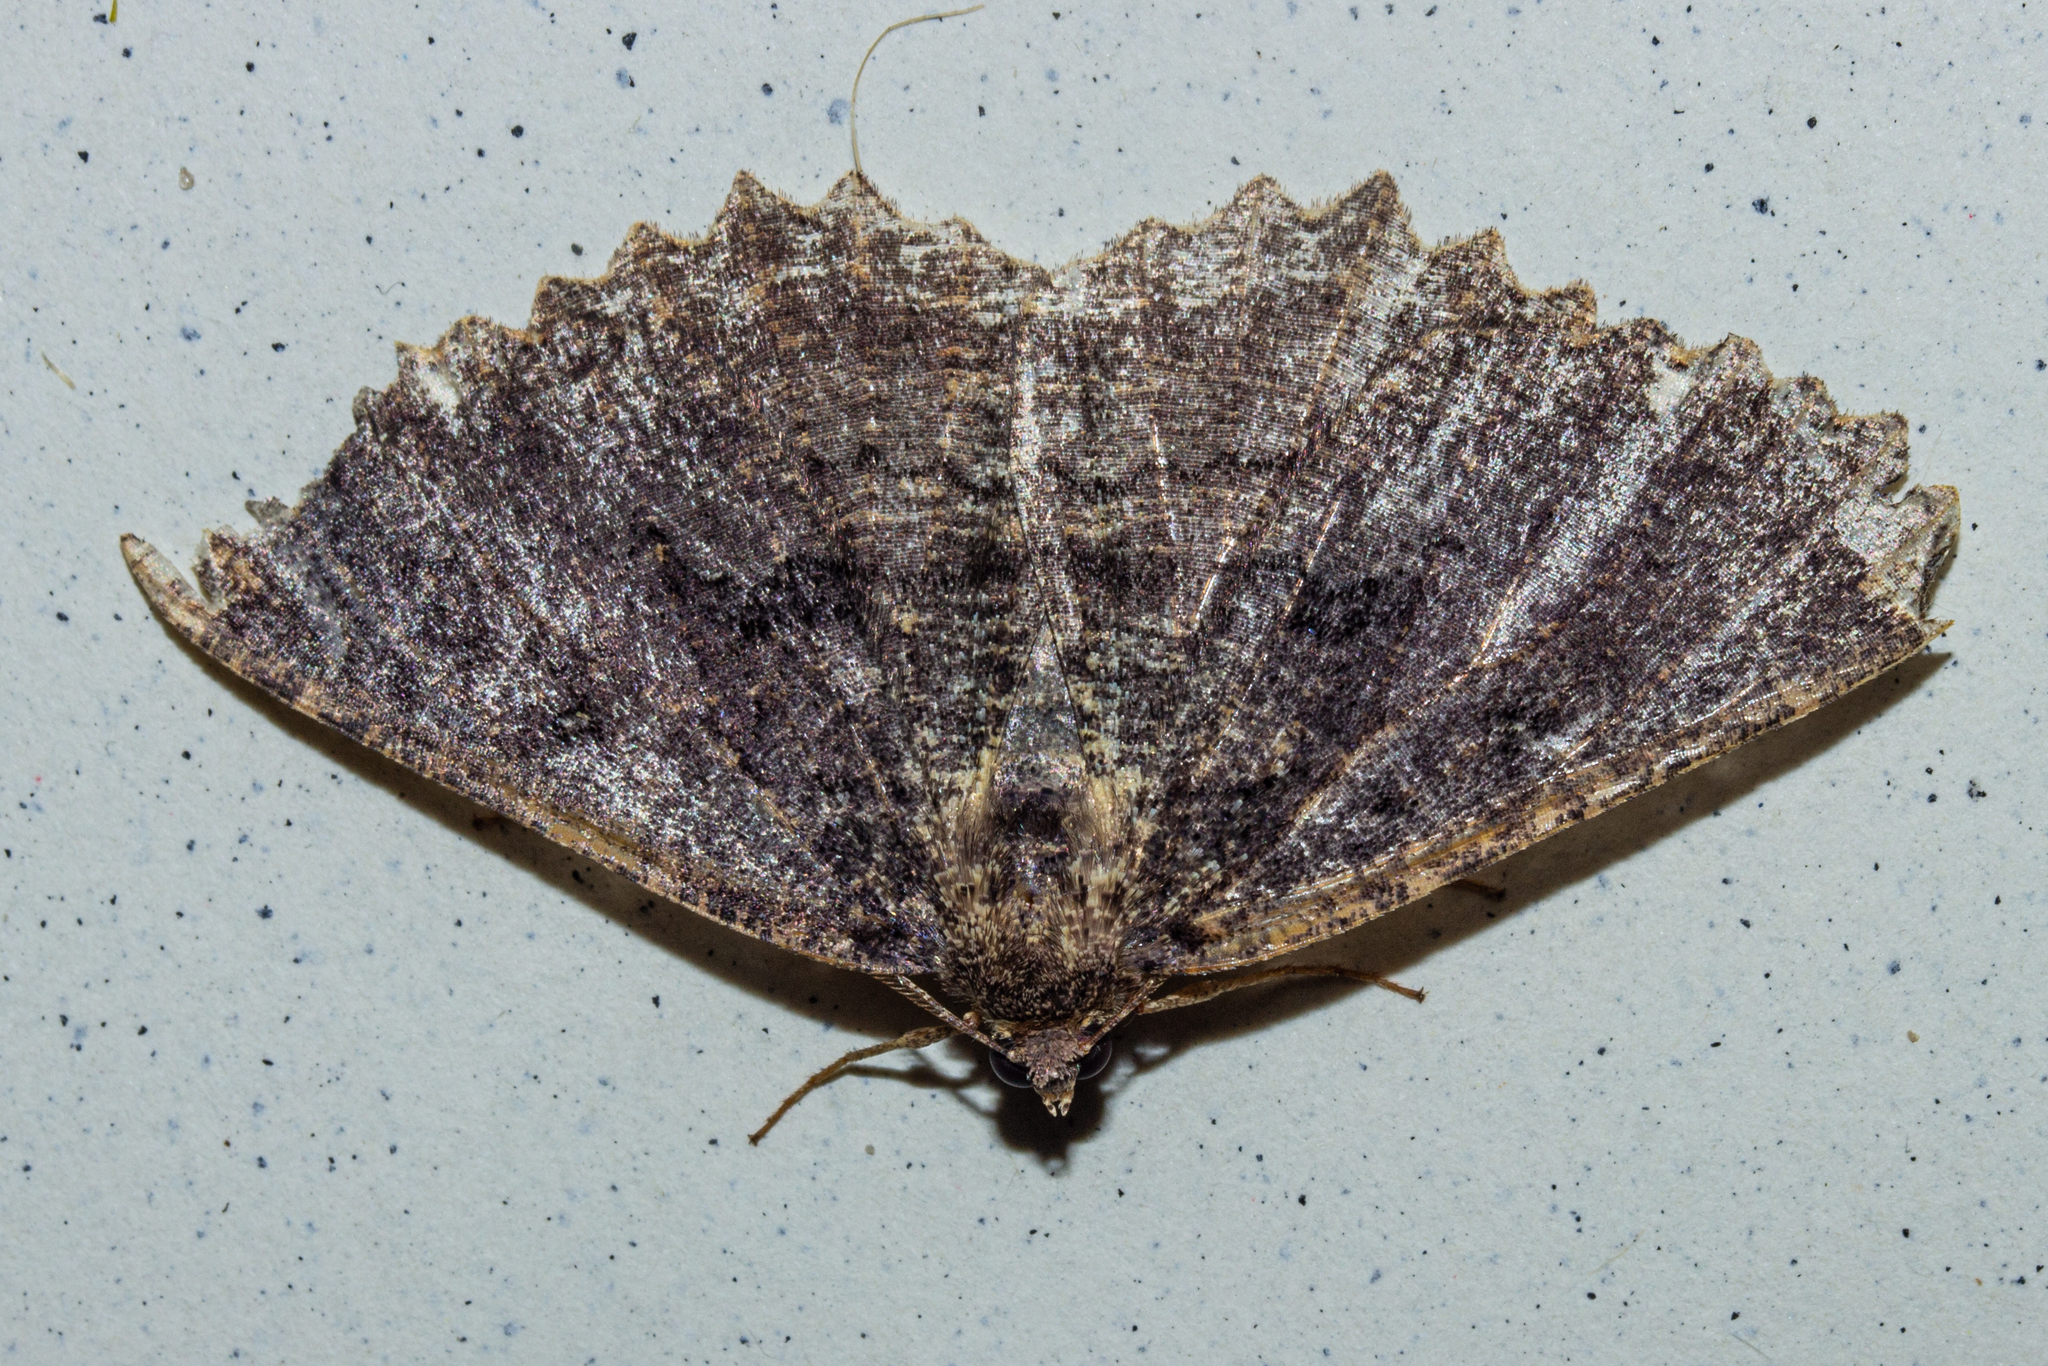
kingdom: Animalia
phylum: Arthropoda
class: Insecta
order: Lepidoptera
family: Geometridae
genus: Gellonia
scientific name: Gellonia dejectaria
